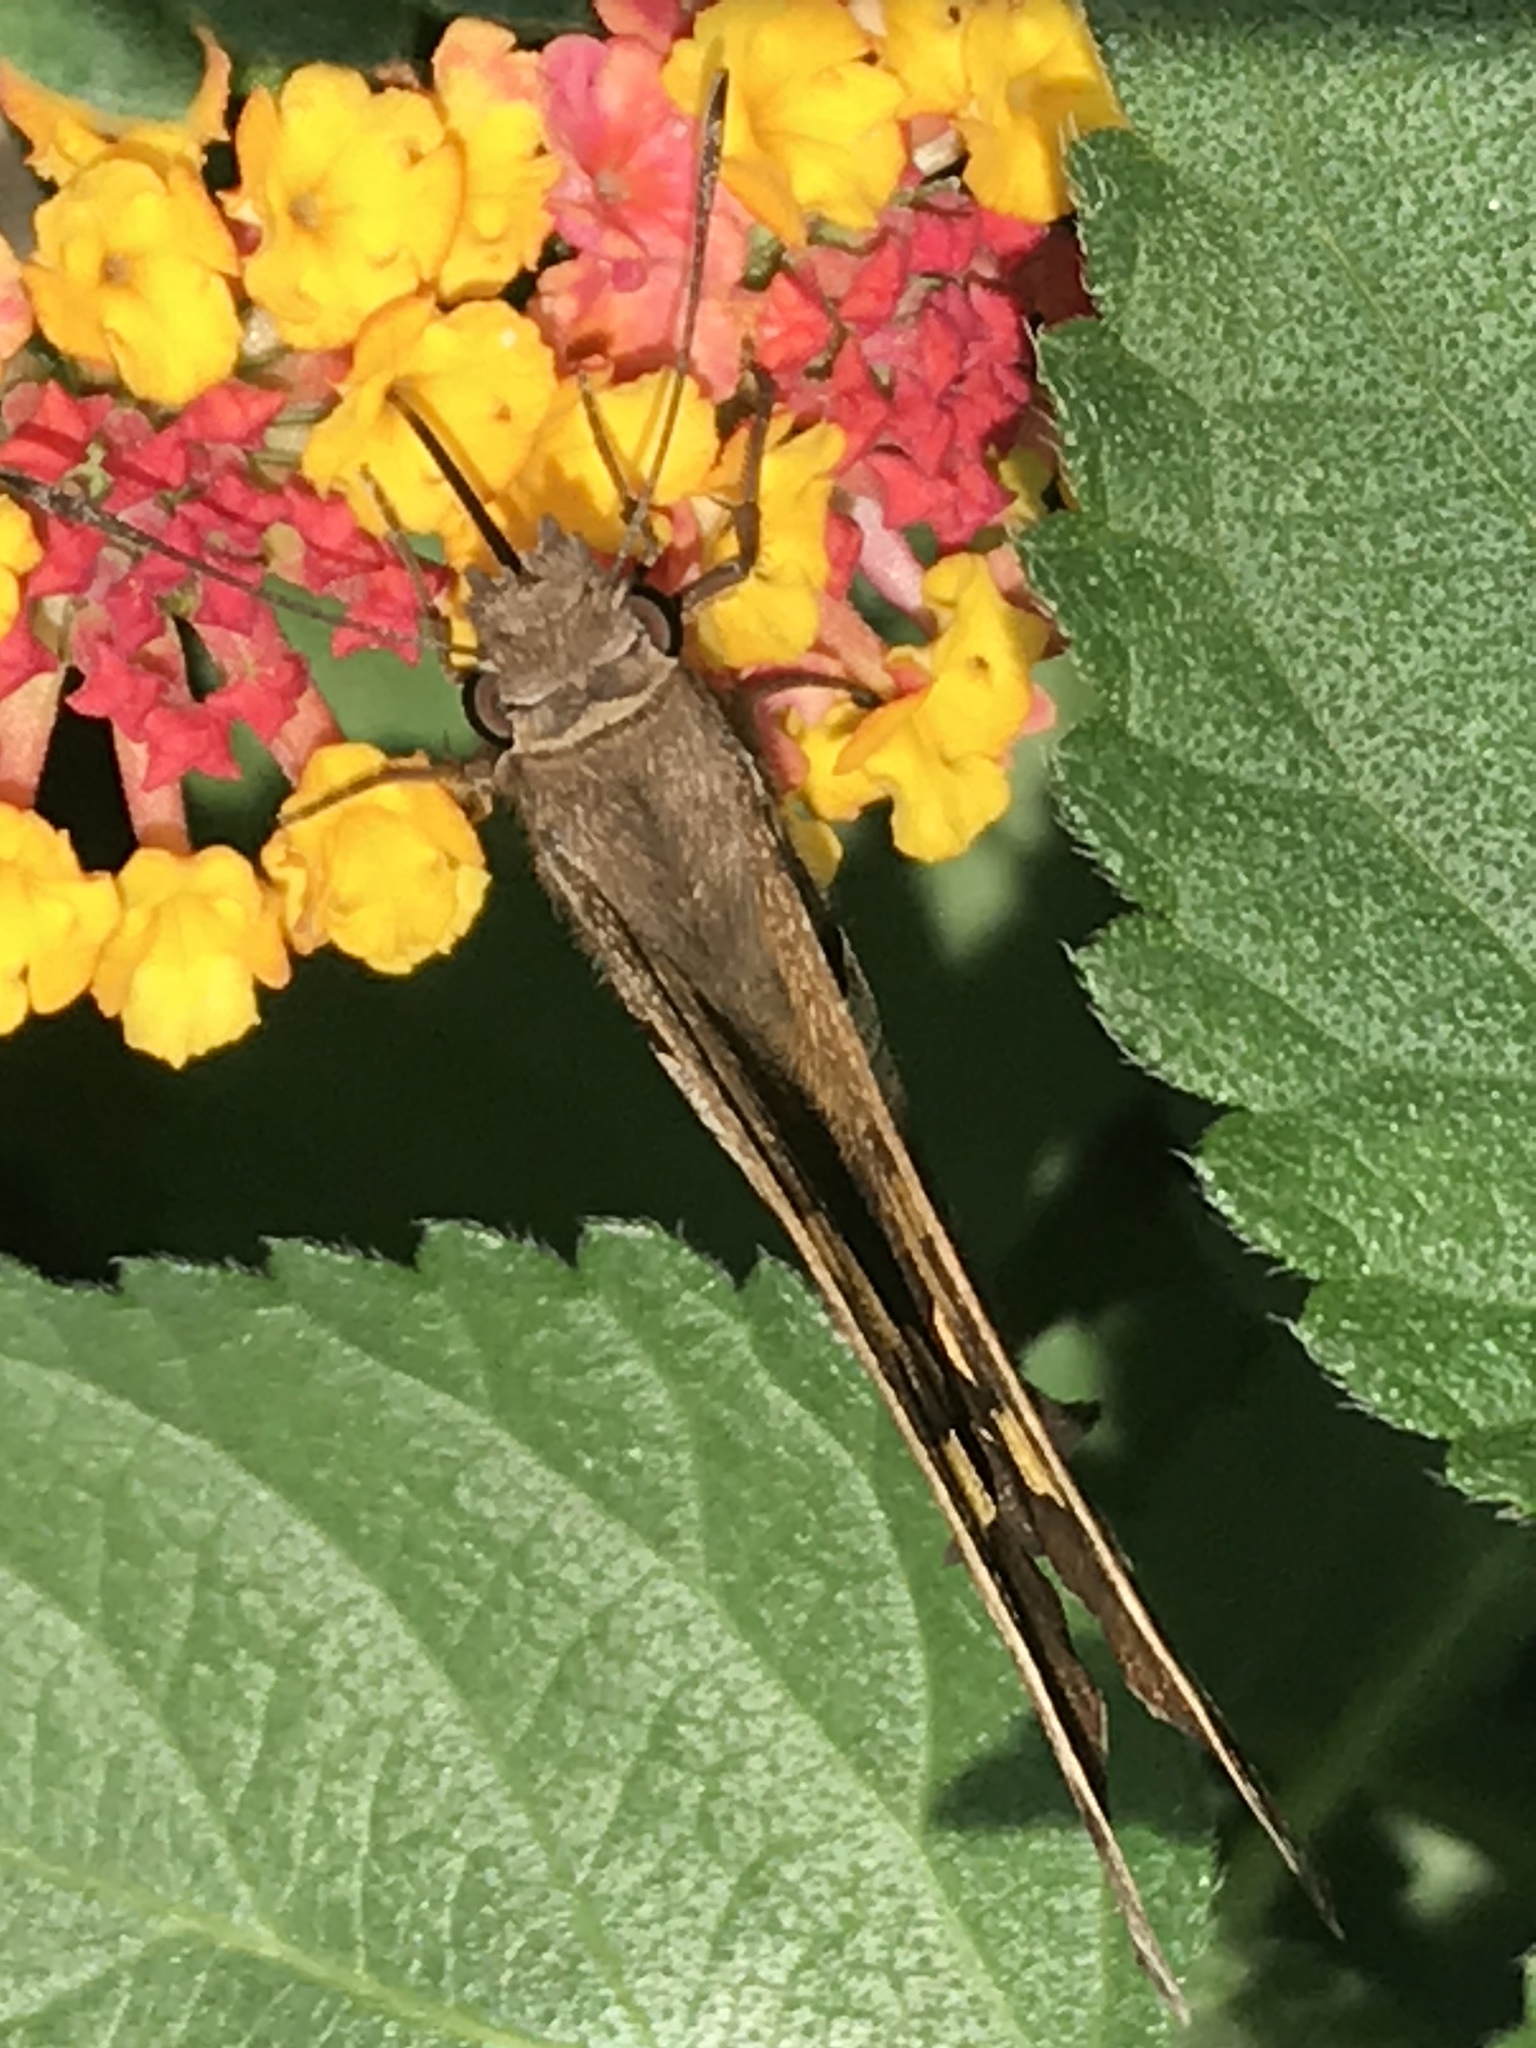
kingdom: Animalia
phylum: Arthropoda
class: Insecta
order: Lepidoptera
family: Hesperiidae
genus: Chioides
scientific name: Chioides zilpa
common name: Zilpa longtail
